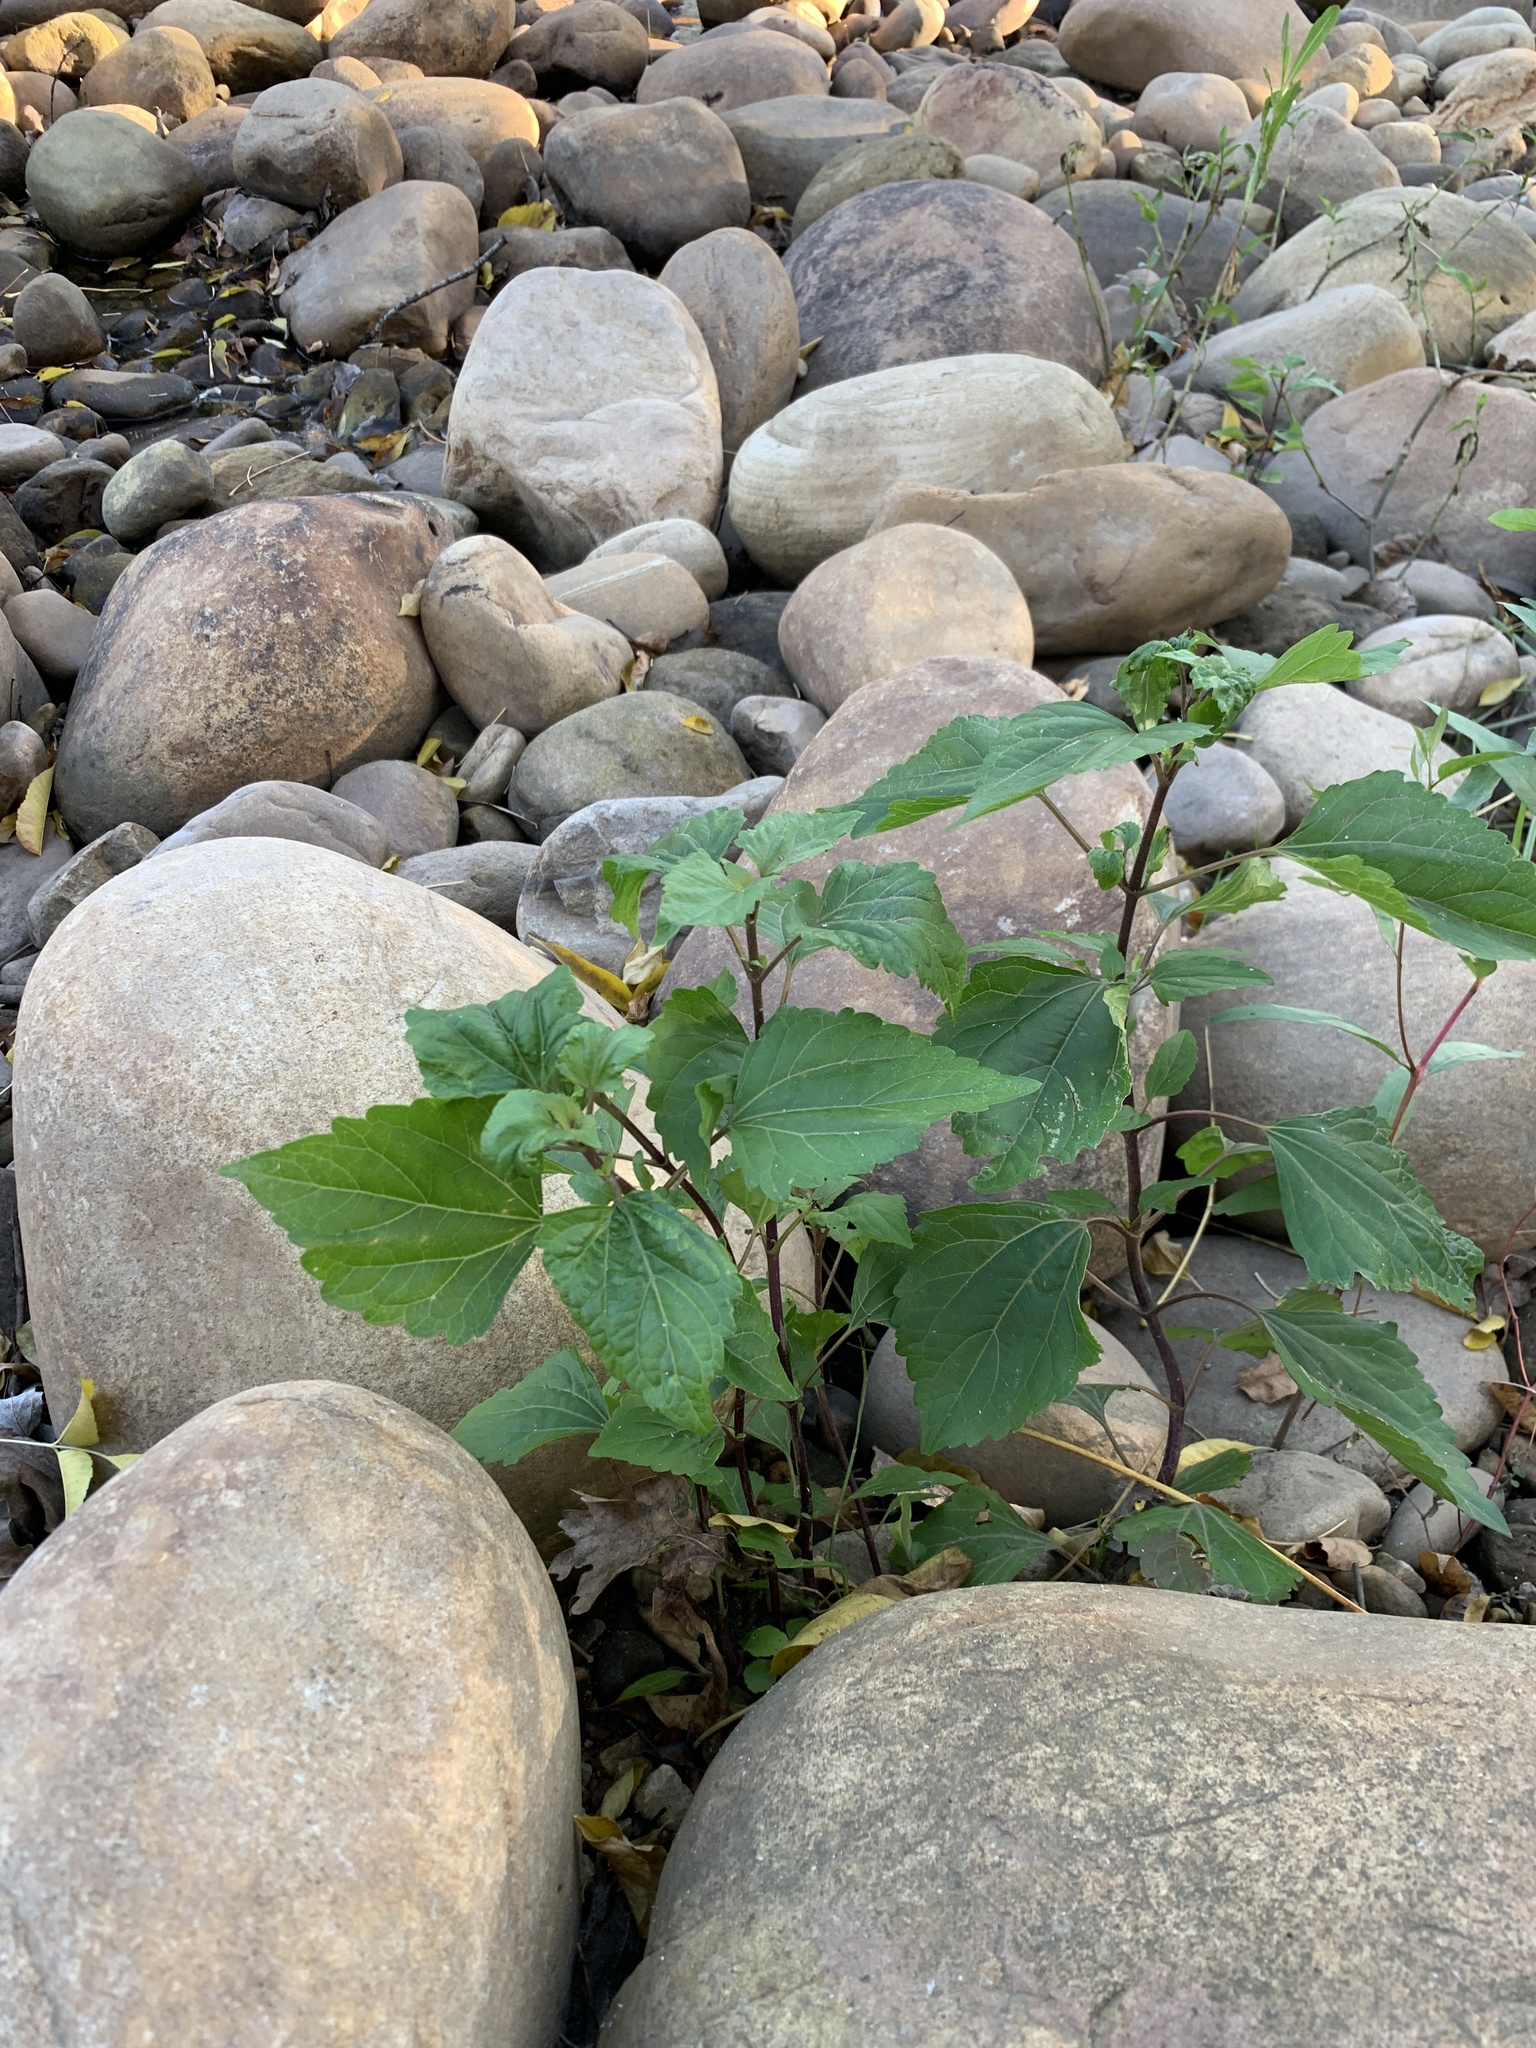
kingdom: Plantae
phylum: Tracheophyta
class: Magnoliopsida
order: Asterales
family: Asteraceae
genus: Ageratina
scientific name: Ageratina adenophora
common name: Sticky snakeroot
